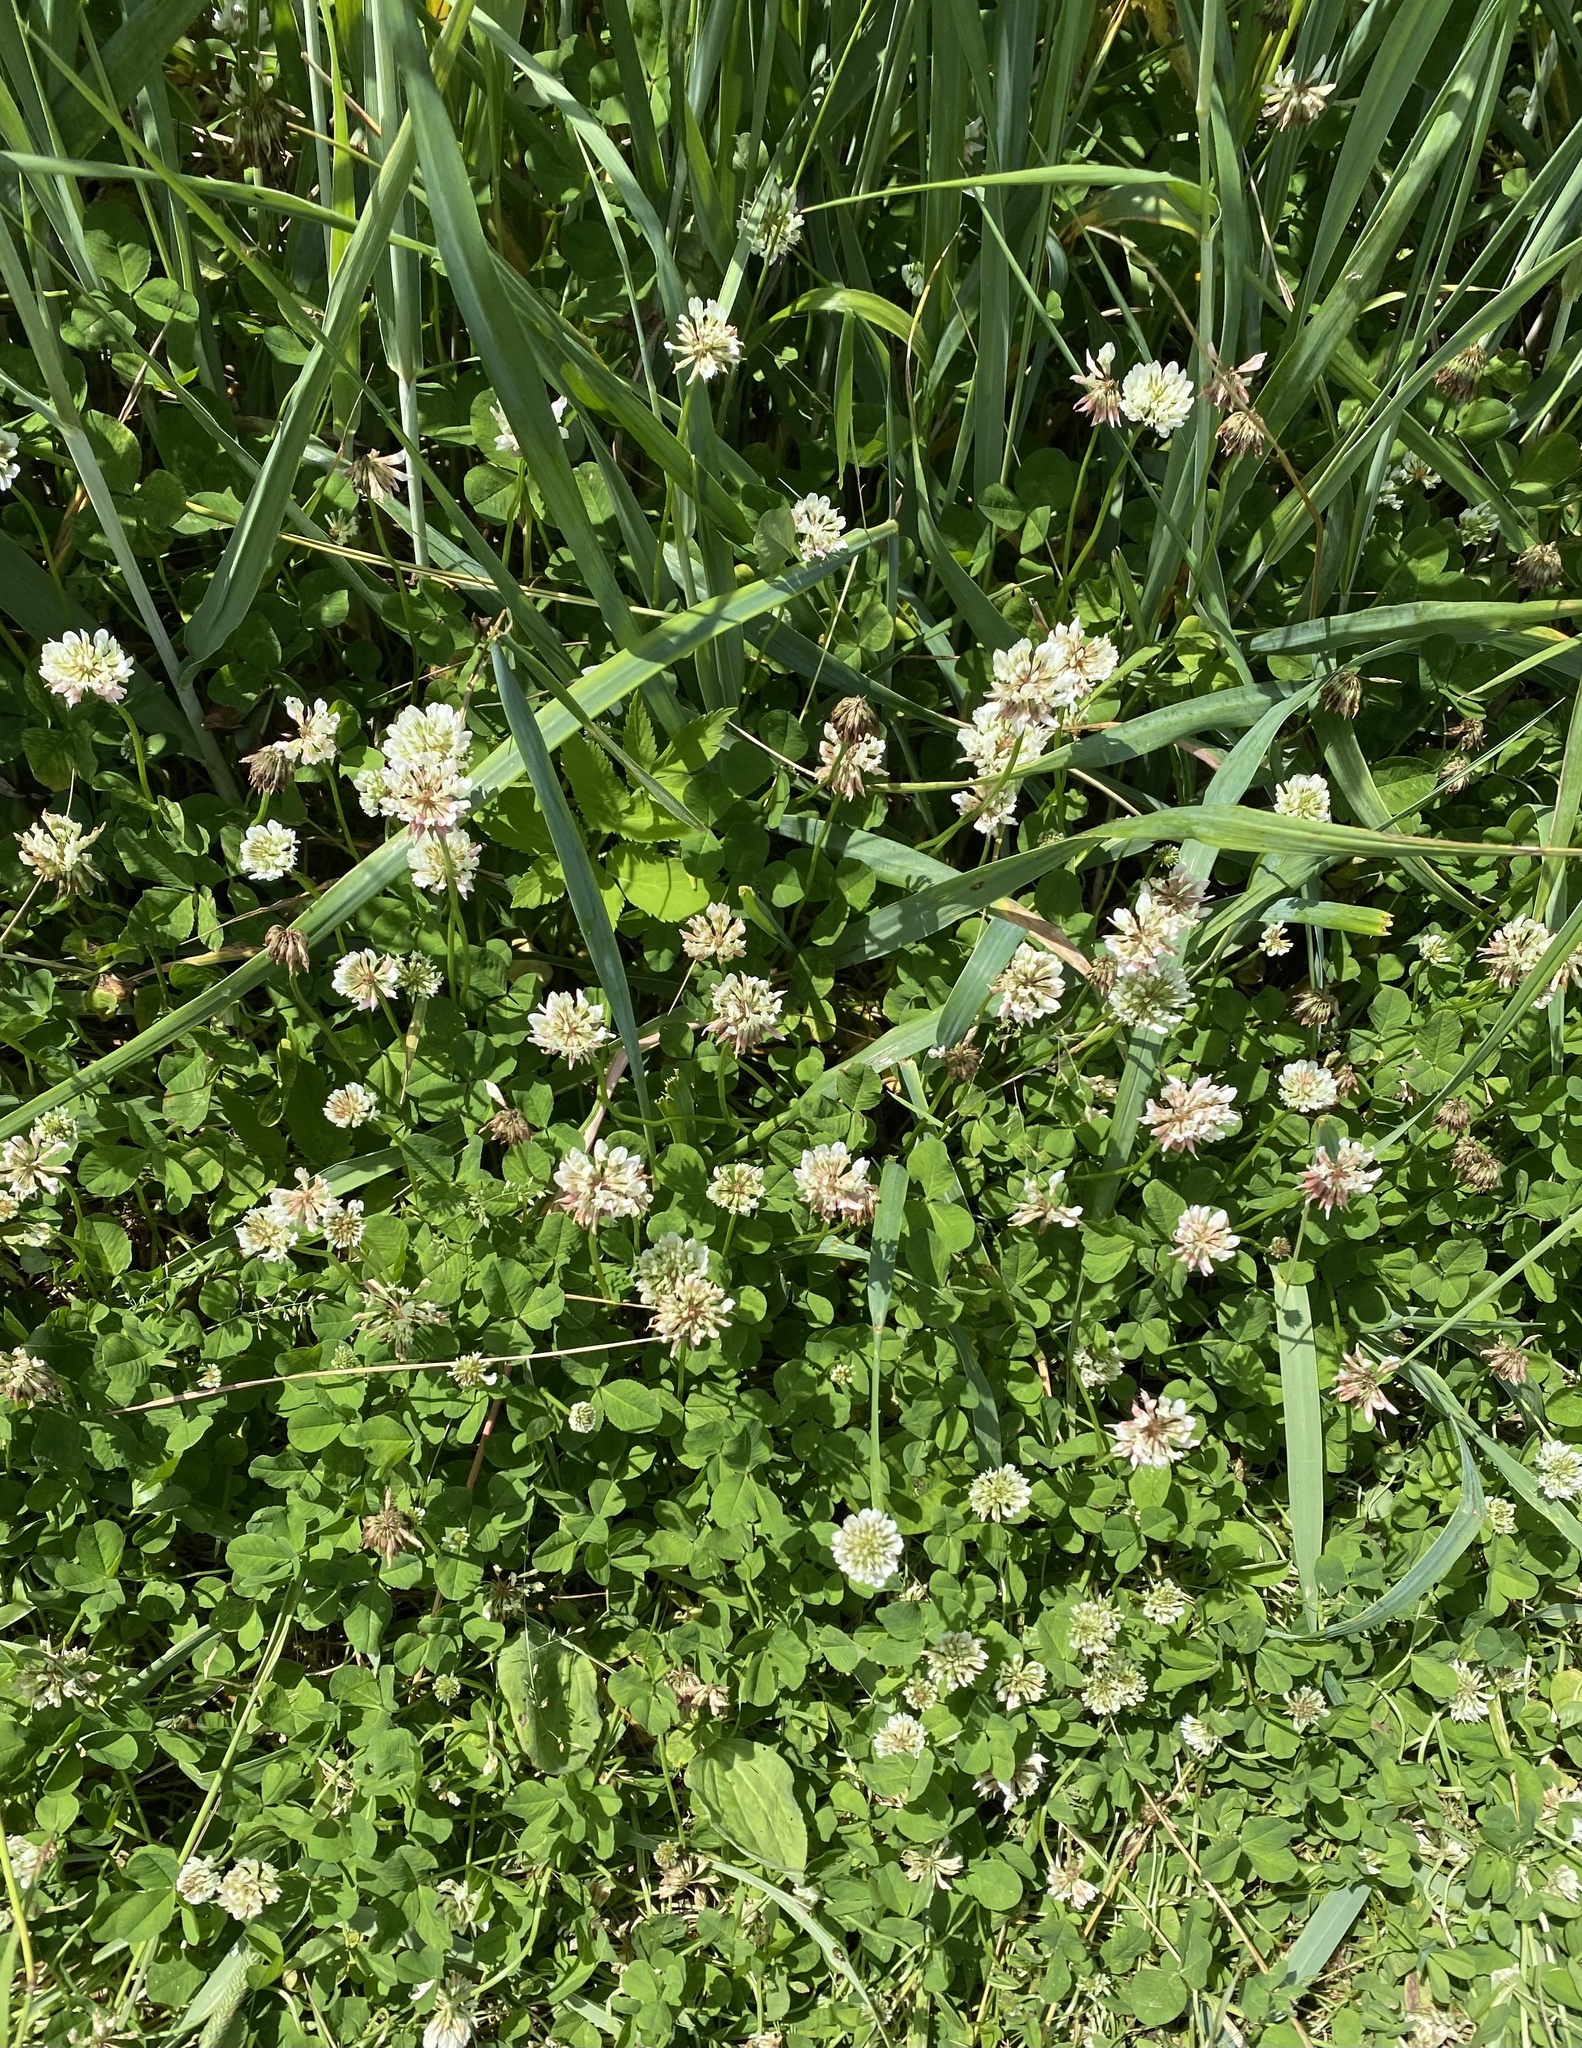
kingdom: Plantae
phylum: Tracheophyta
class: Magnoliopsida
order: Fabales
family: Fabaceae
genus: Trifolium
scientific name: Trifolium repens
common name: White clover
